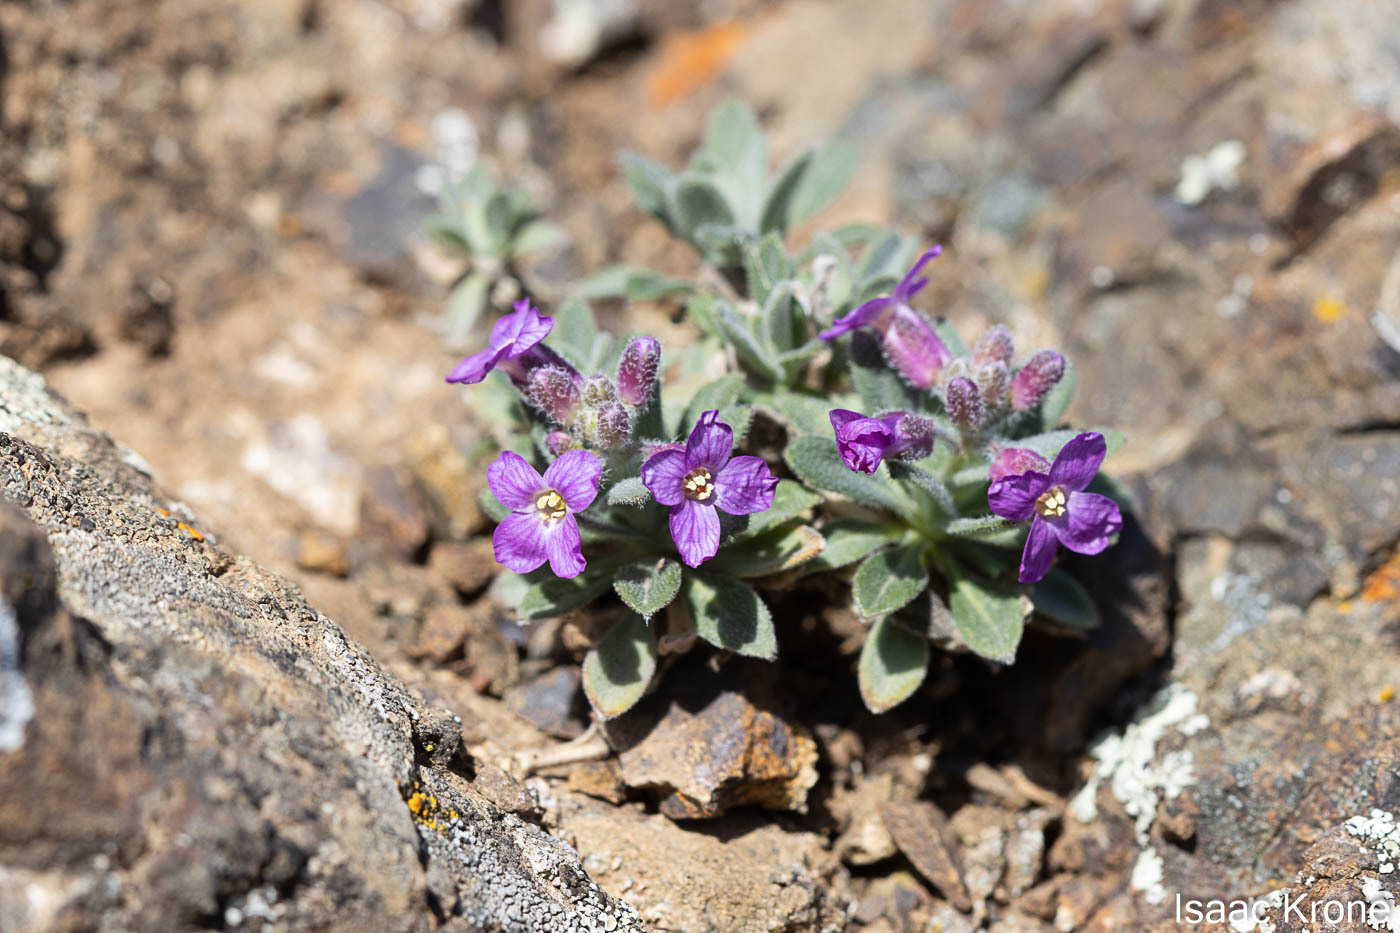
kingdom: Plantae
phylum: Tracheophyta
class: Magnoliopsida
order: Brassicales
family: Brassicaceae
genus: Boechera
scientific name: Boechera breweri
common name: Brewer's rockcress
